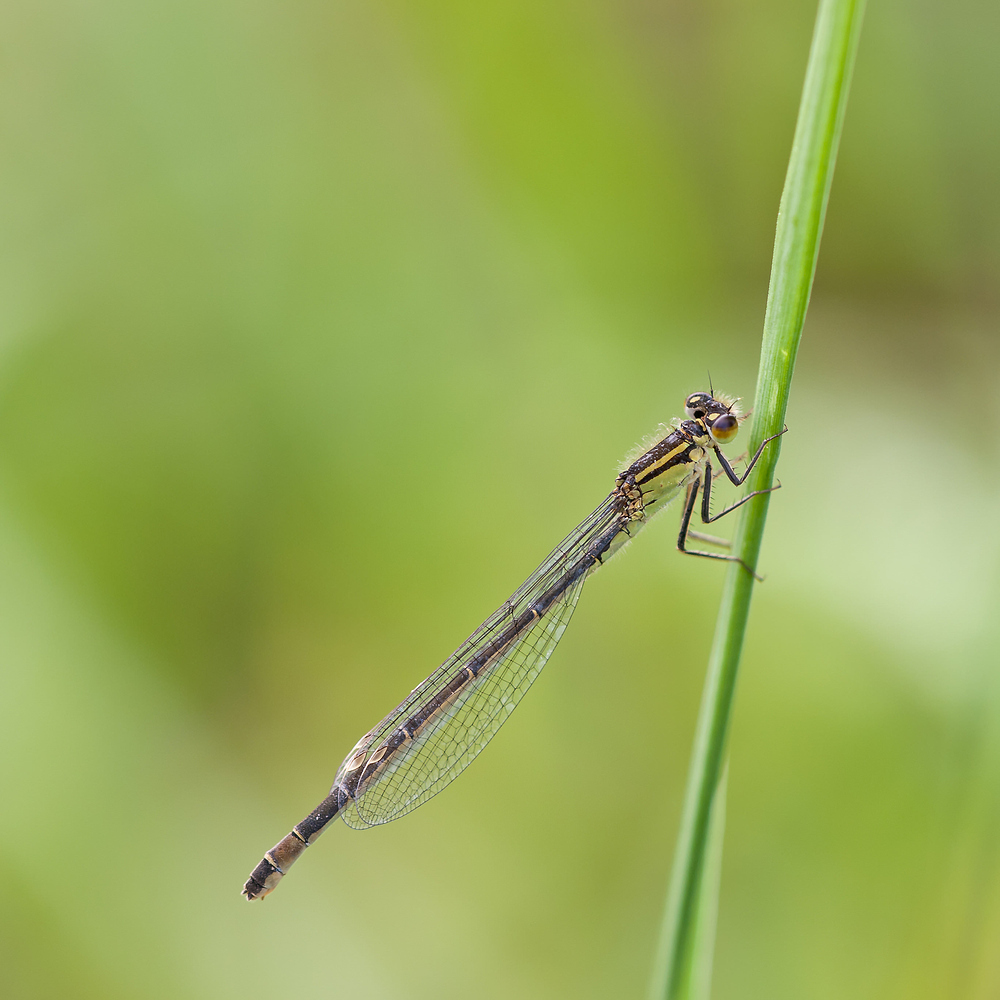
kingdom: Animalia
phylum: Arthropoda
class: Insecta
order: Odonata
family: Coenagrionidae
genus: Ischnura
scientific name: Ischnura elegans
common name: Blue-tailed damselfly
